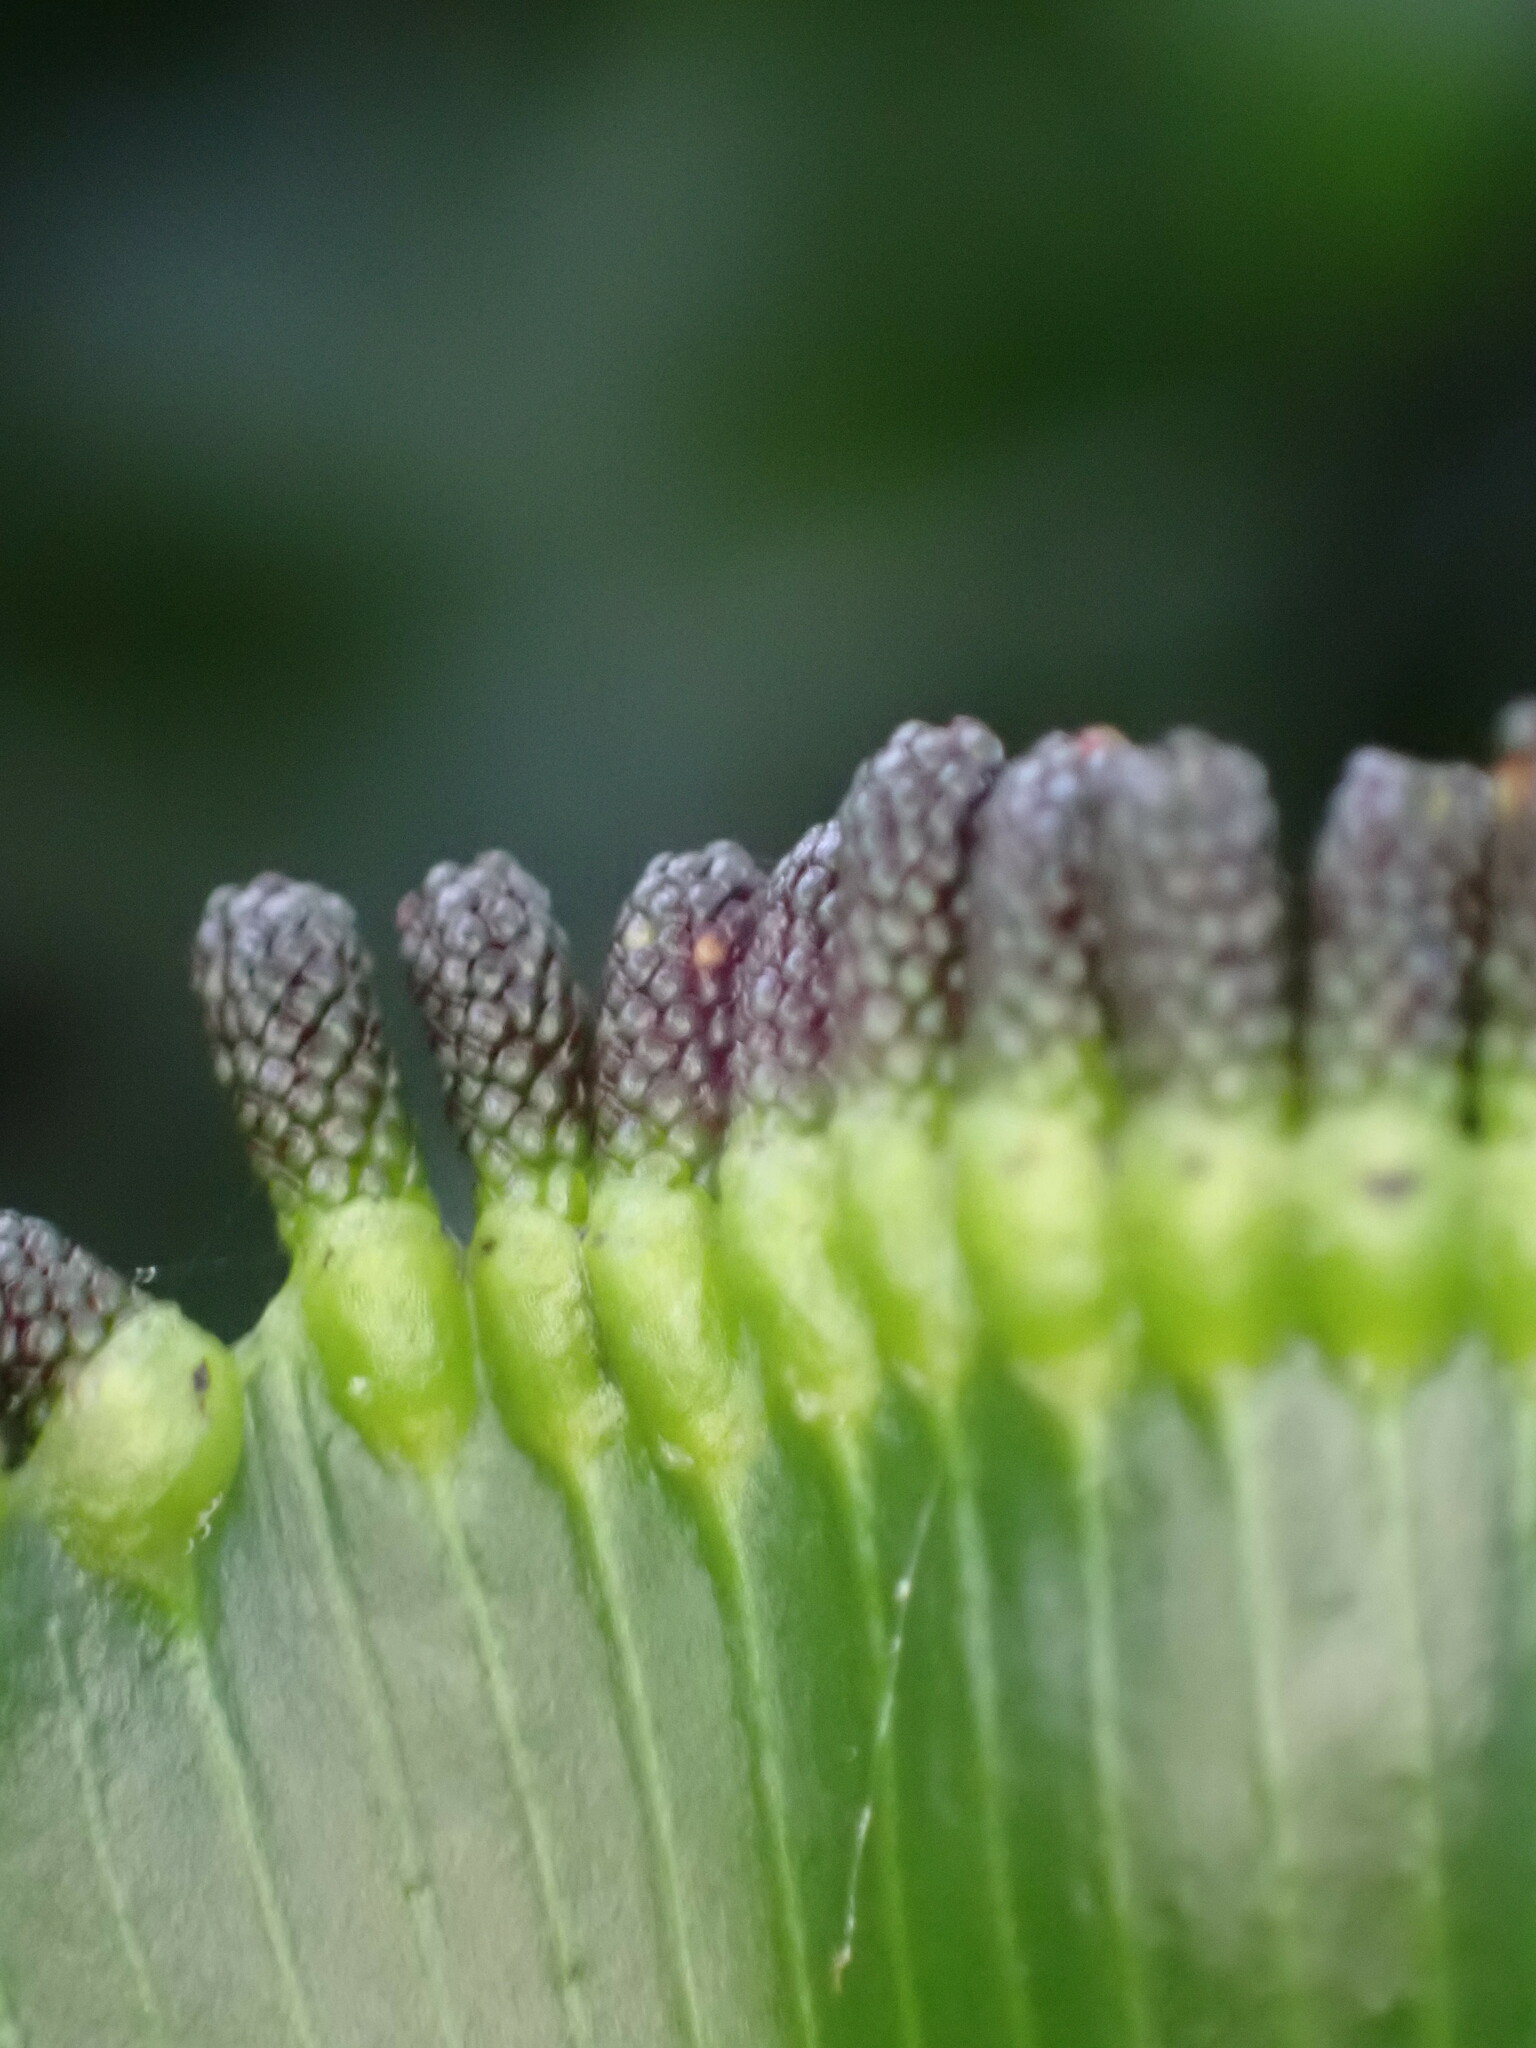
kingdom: Plantae
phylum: Tracheophyta
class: Polypodiopsida
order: Hymenophyllales
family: Hymenophyllaceae
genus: Hymenophyllum
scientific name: Hymenophyllum nephrophyllum
